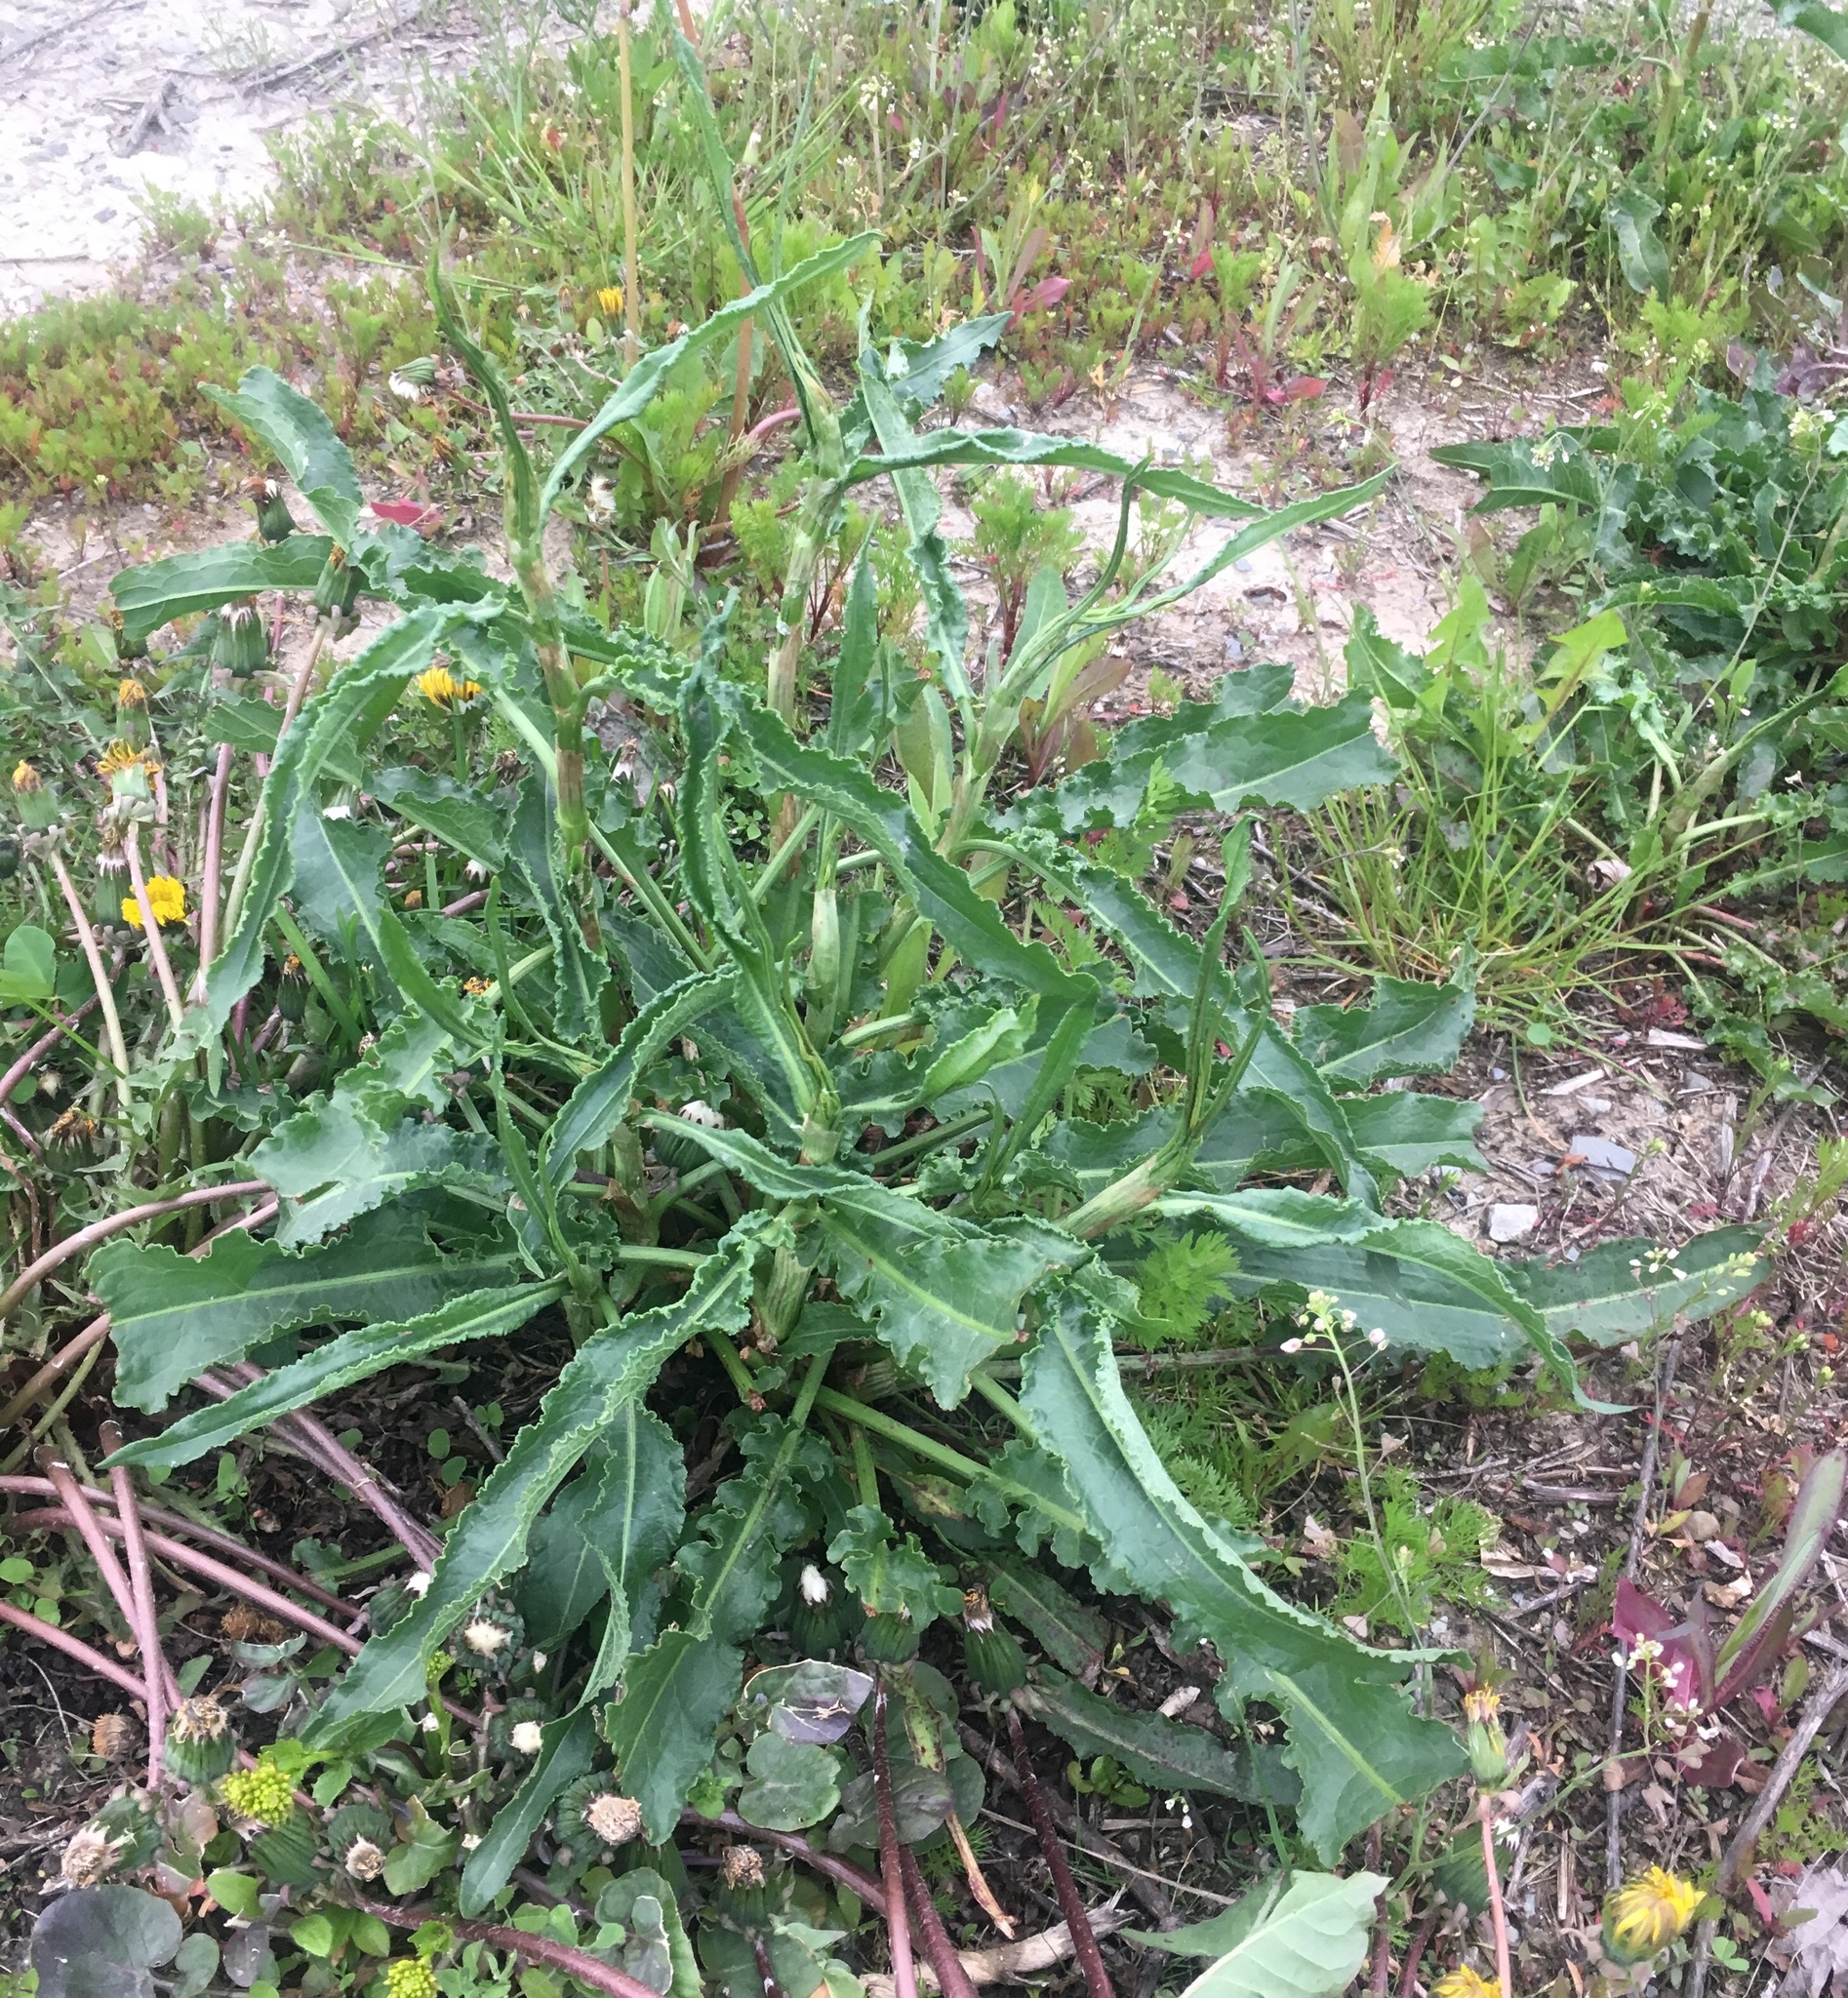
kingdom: Plantae
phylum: Tracheophyta
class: Magnoliopsida
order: Caryophyllales
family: Polygonaceae
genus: Rumex
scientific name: Rumex crispus
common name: Curled dock
